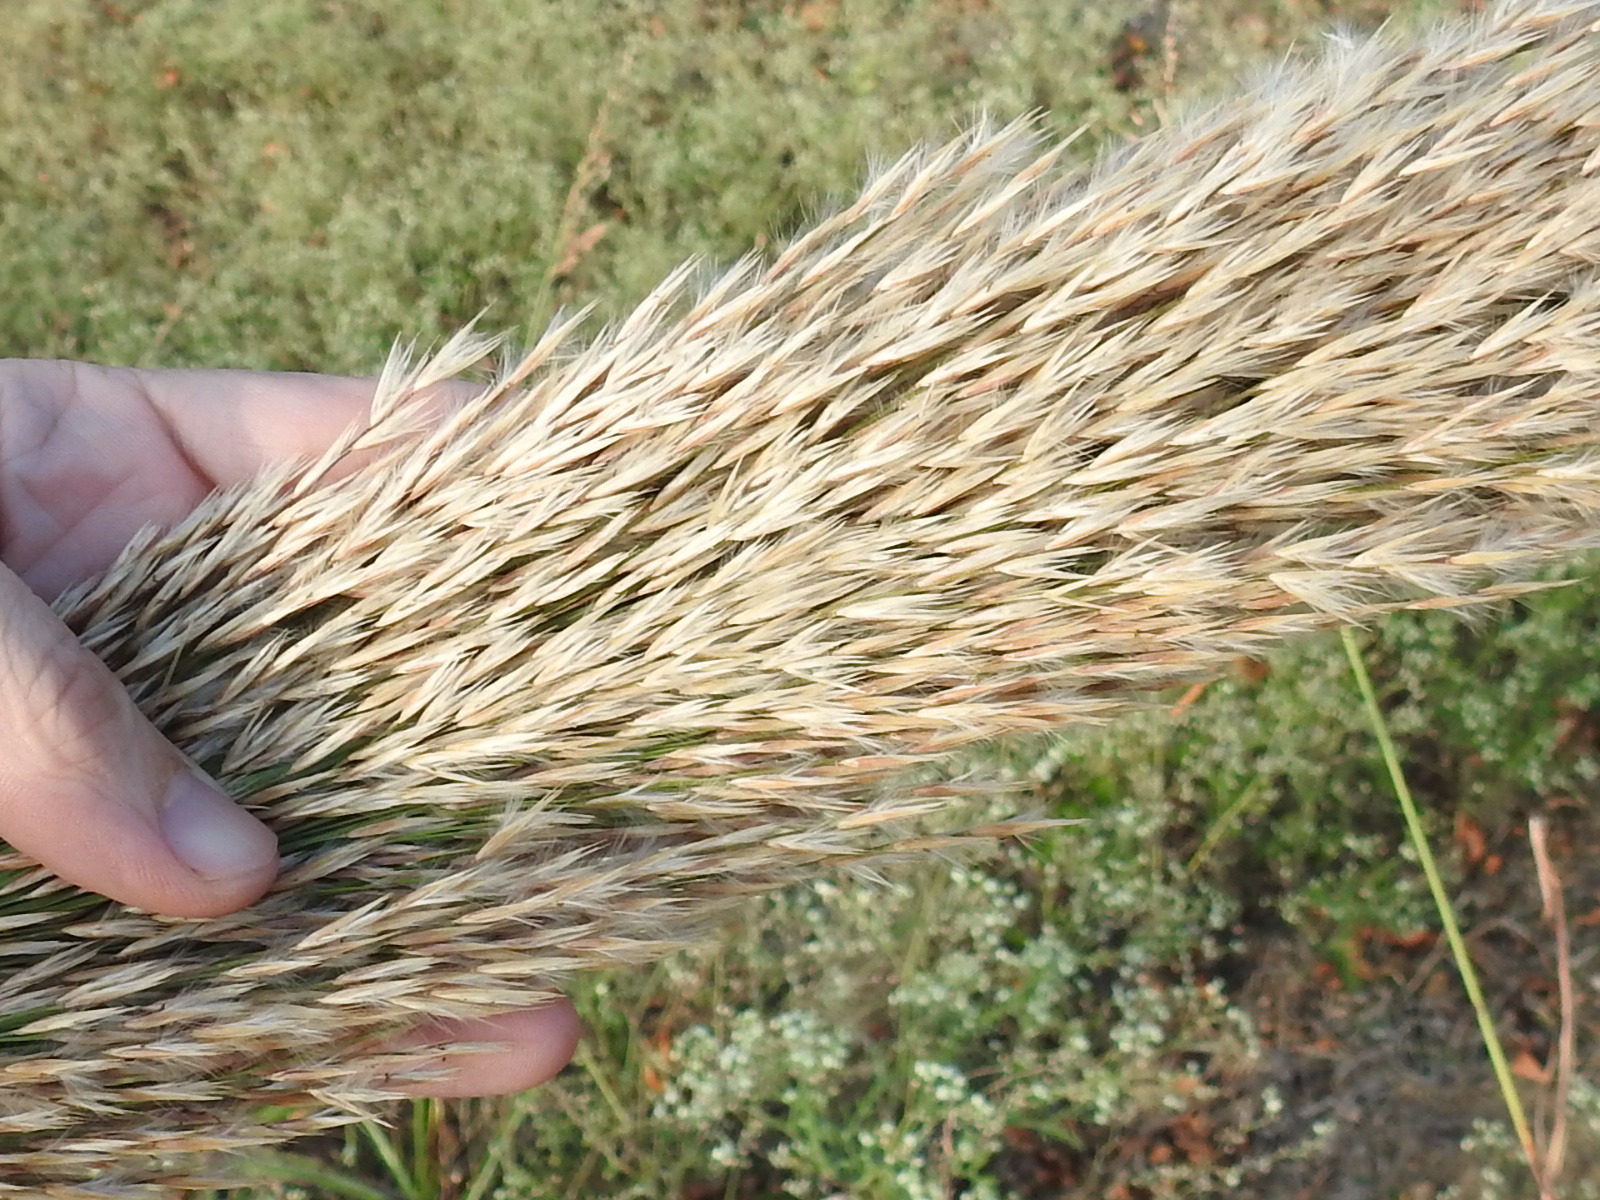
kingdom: Plantae
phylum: Tracheophyta
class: Liliopsida
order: Poales
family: Poaceae
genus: Arundo
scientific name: Arundo donax
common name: Giant reed
